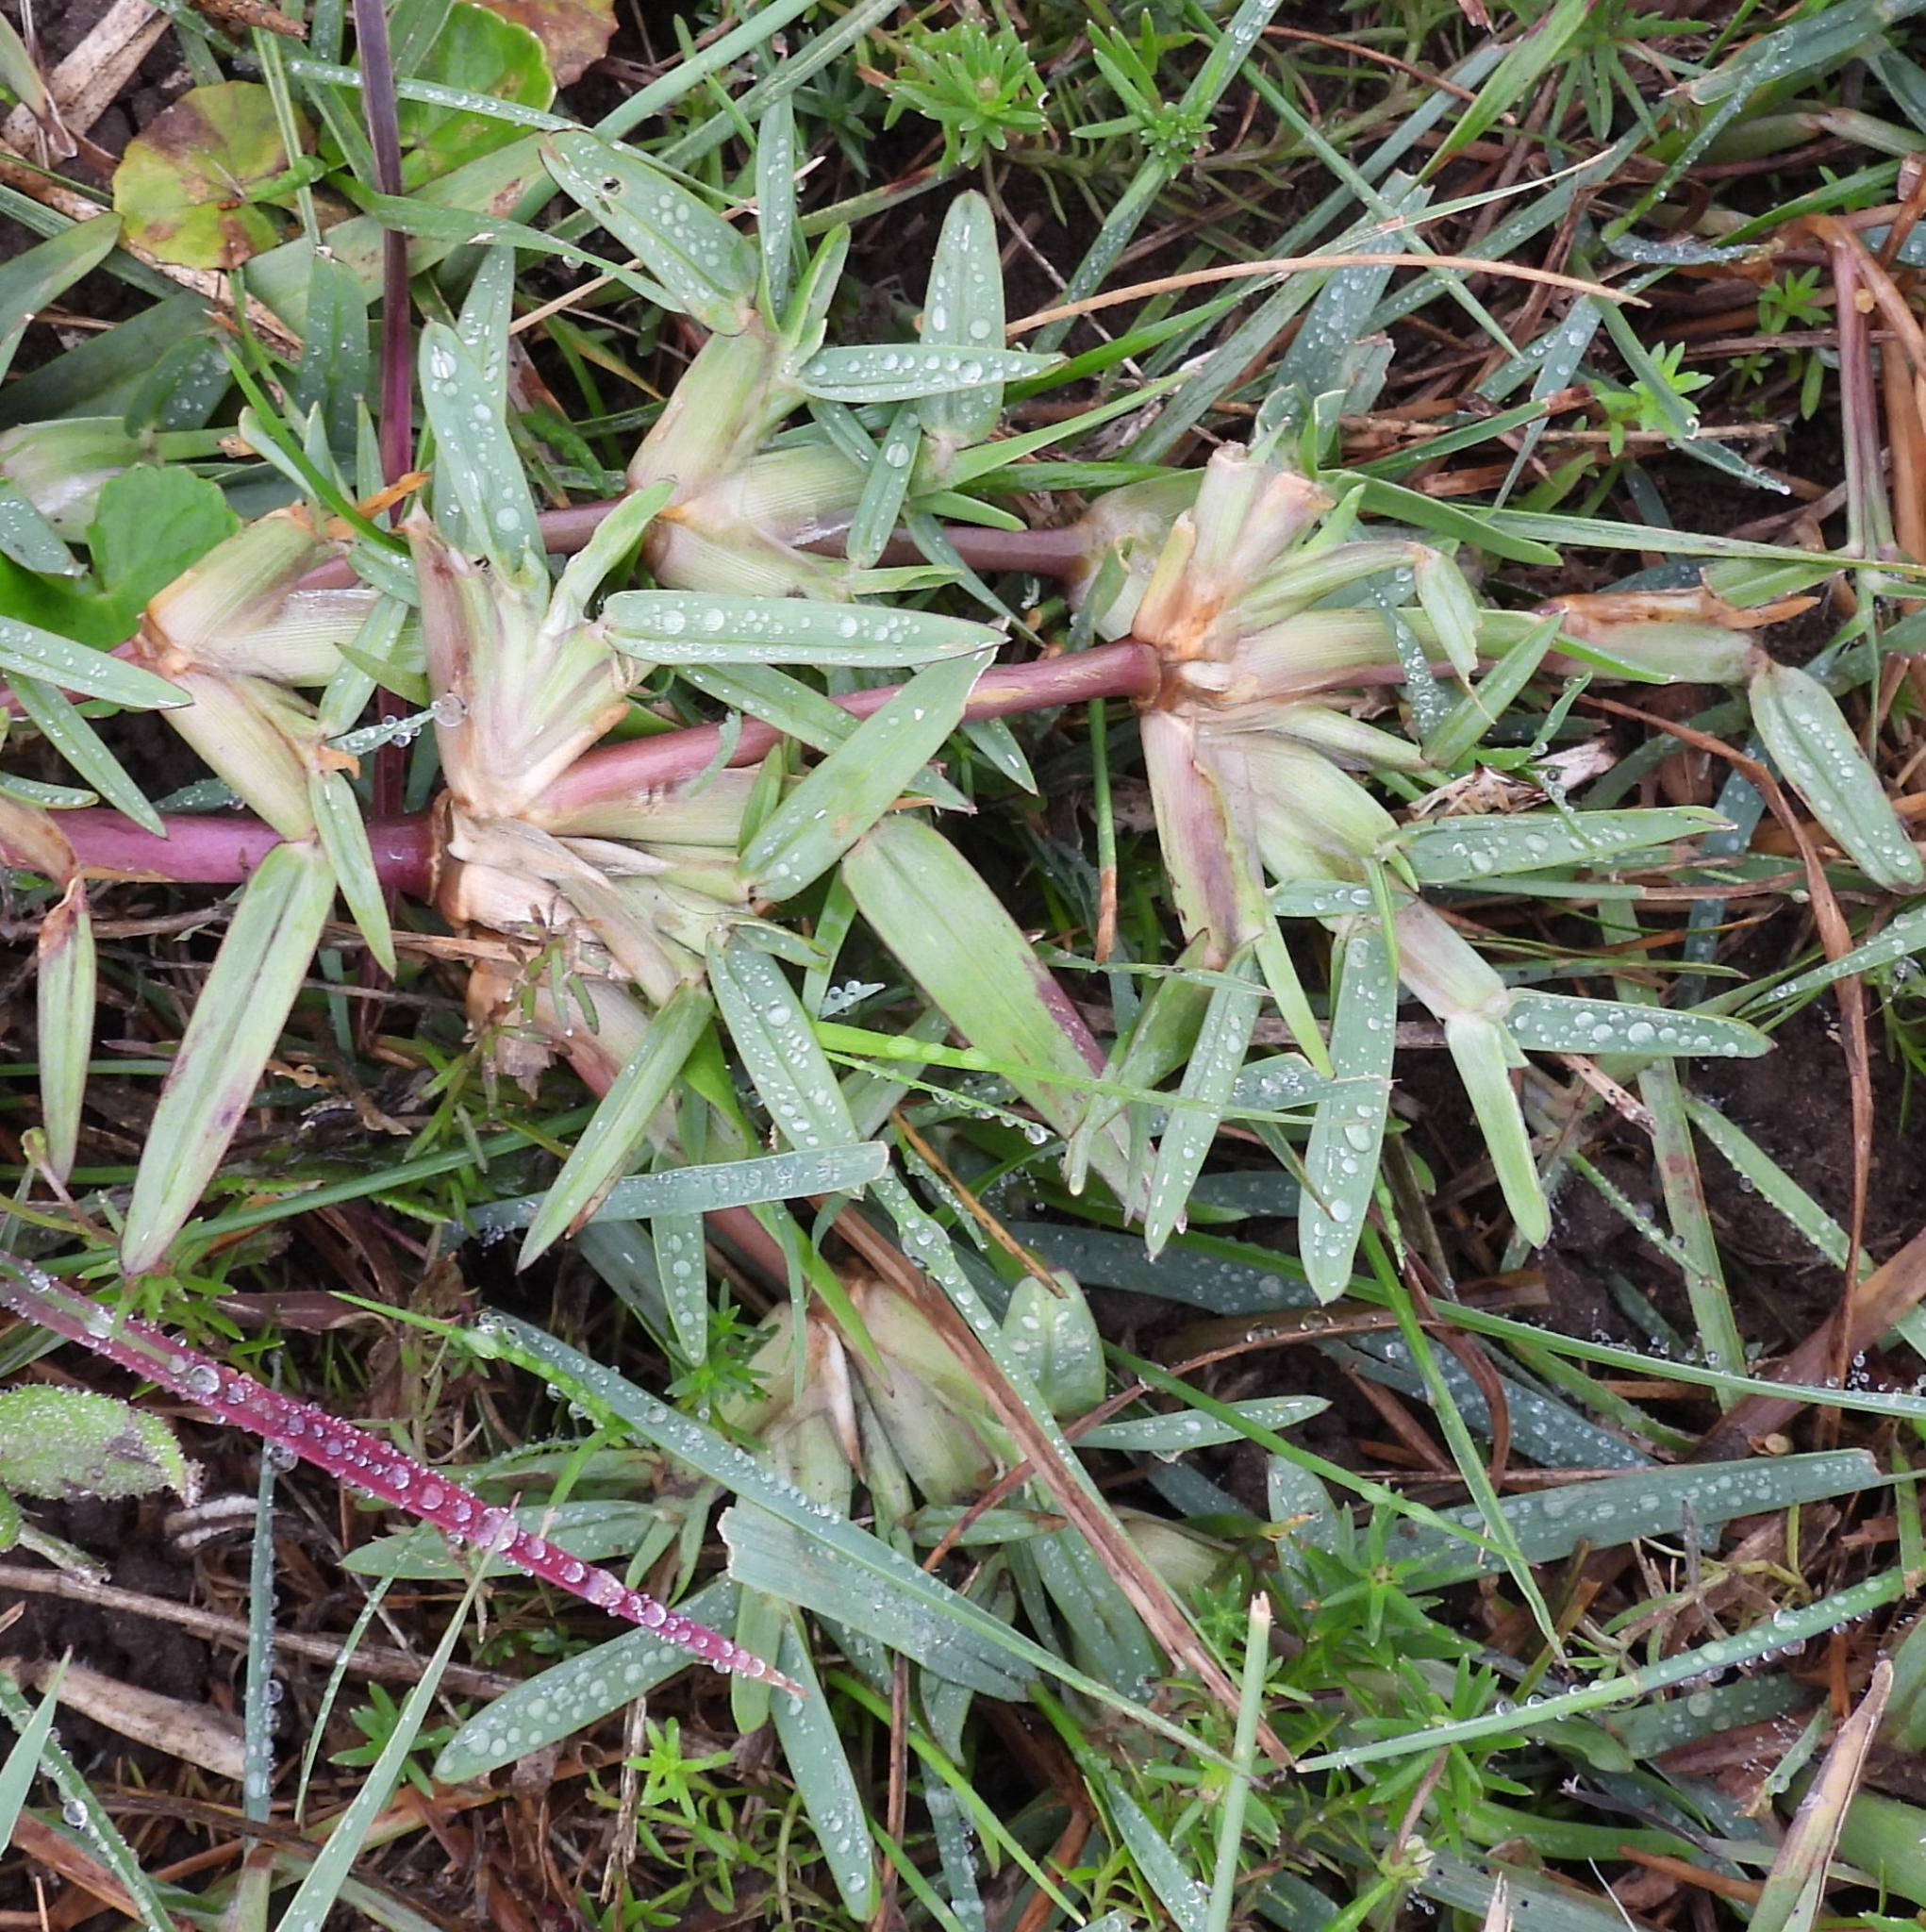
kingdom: Plantae
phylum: Tracheophyta
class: Liliopsida
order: Poales
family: Poaceae
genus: Stenotaphrum
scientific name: Stenotaphrum secundatum
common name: St. augustine grass
